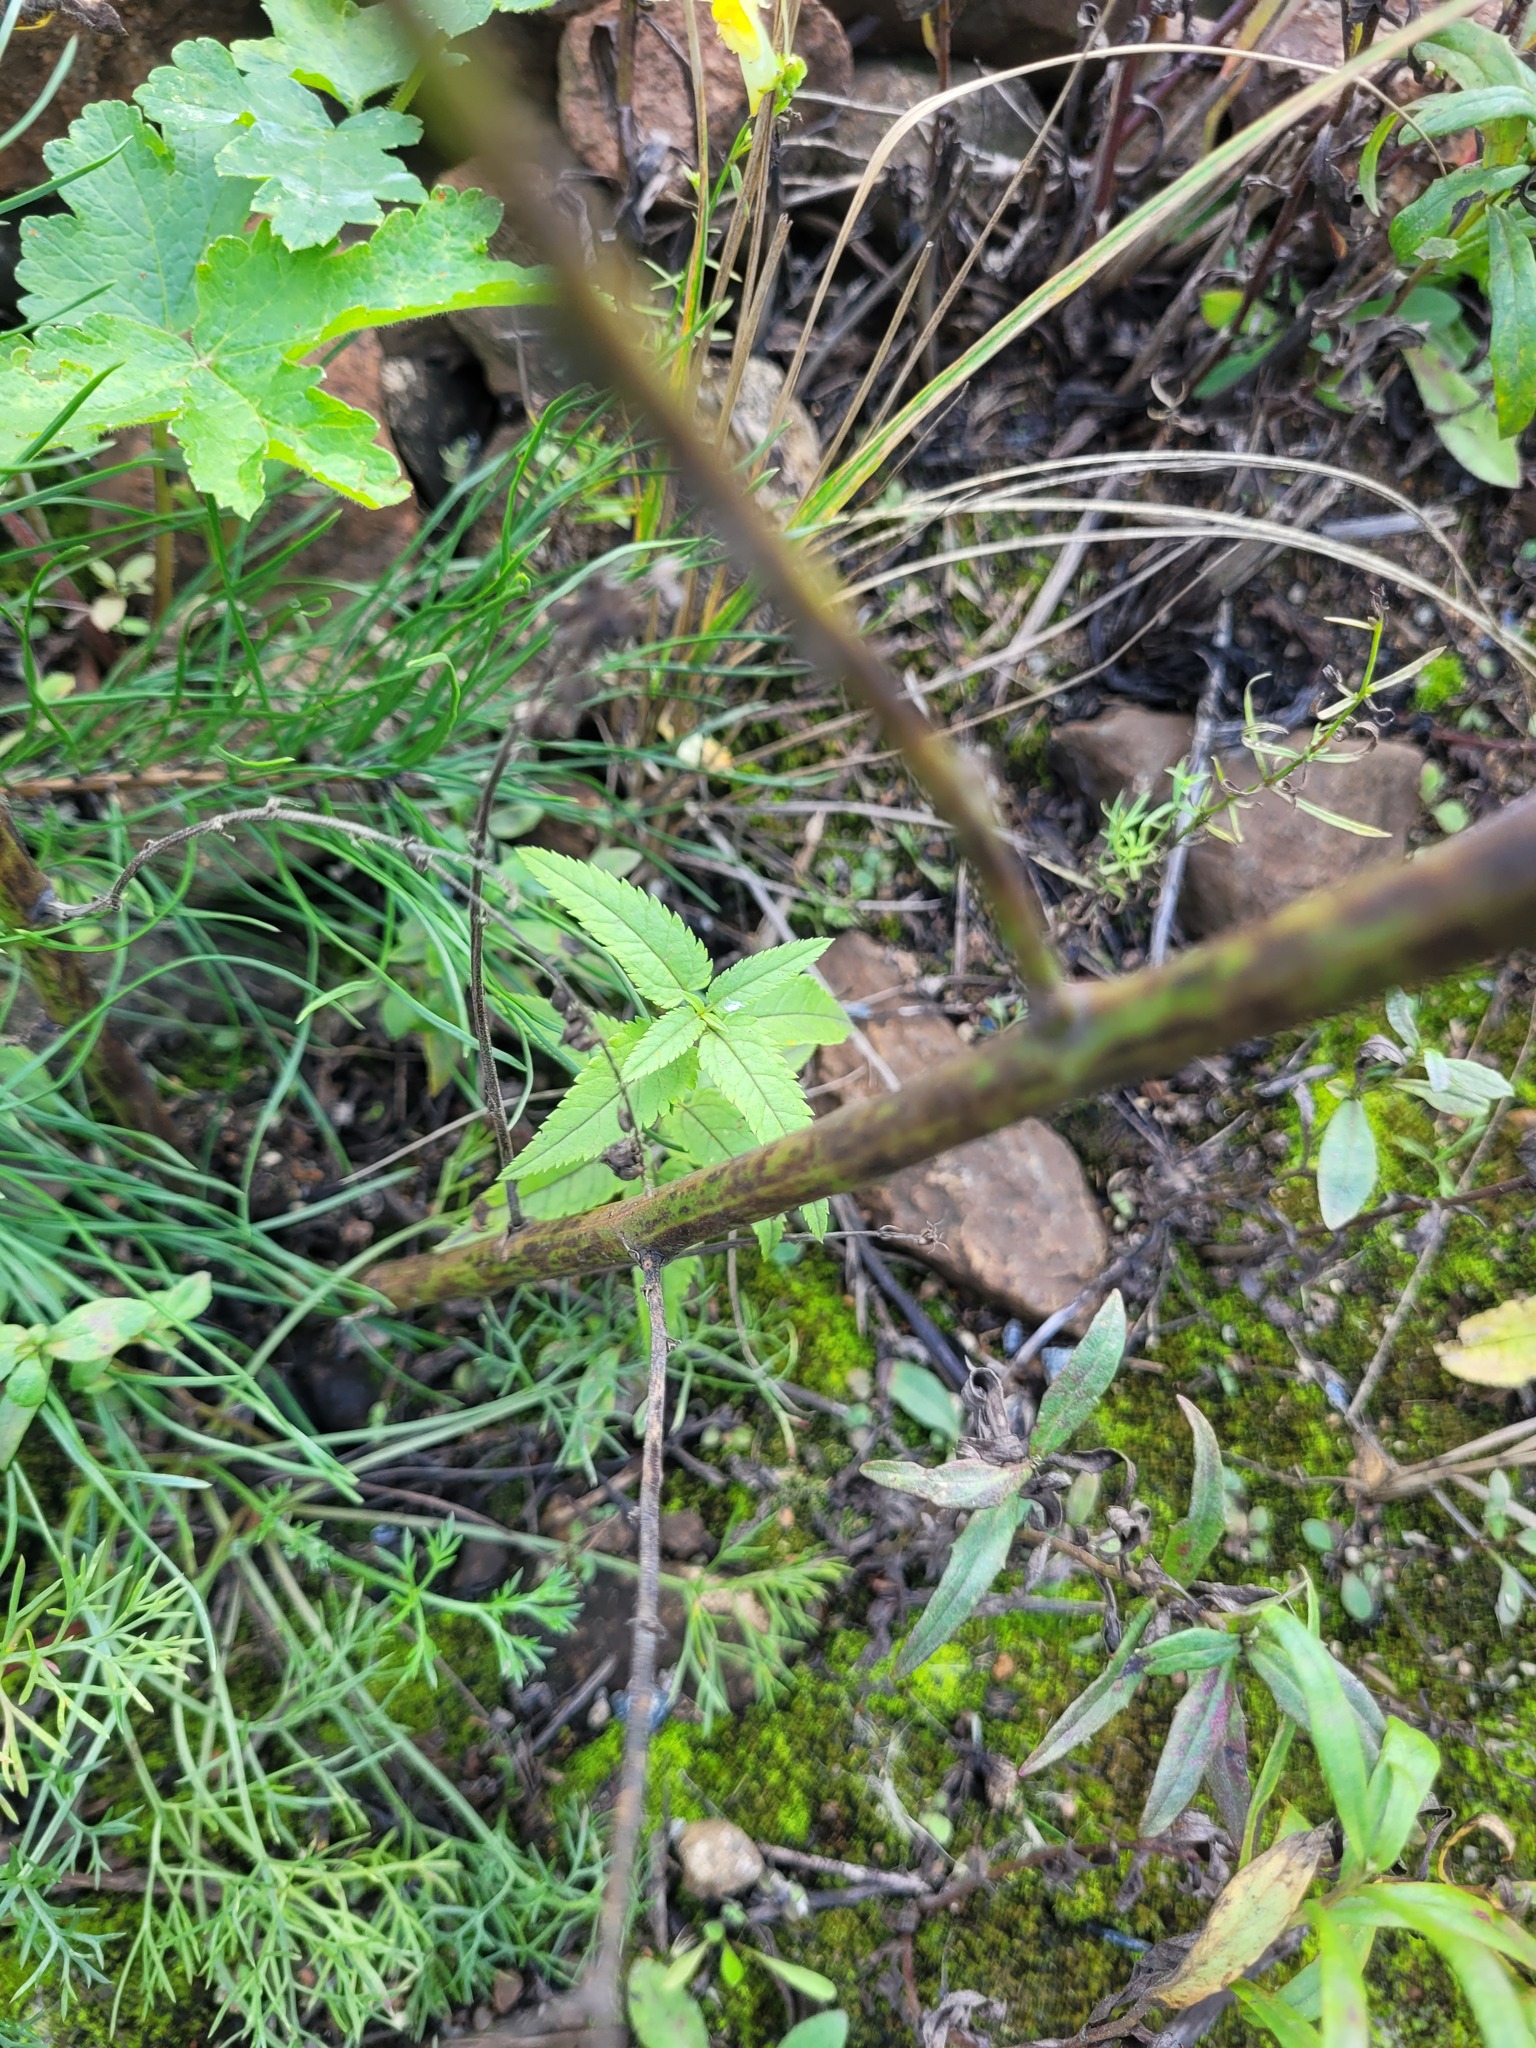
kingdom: Plantae
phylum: Tracheophyta
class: Magnoliopsida
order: Lamiales
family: Plantaginaceae
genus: Veronica
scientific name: Veronica longifolia
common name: Garden speedwell
